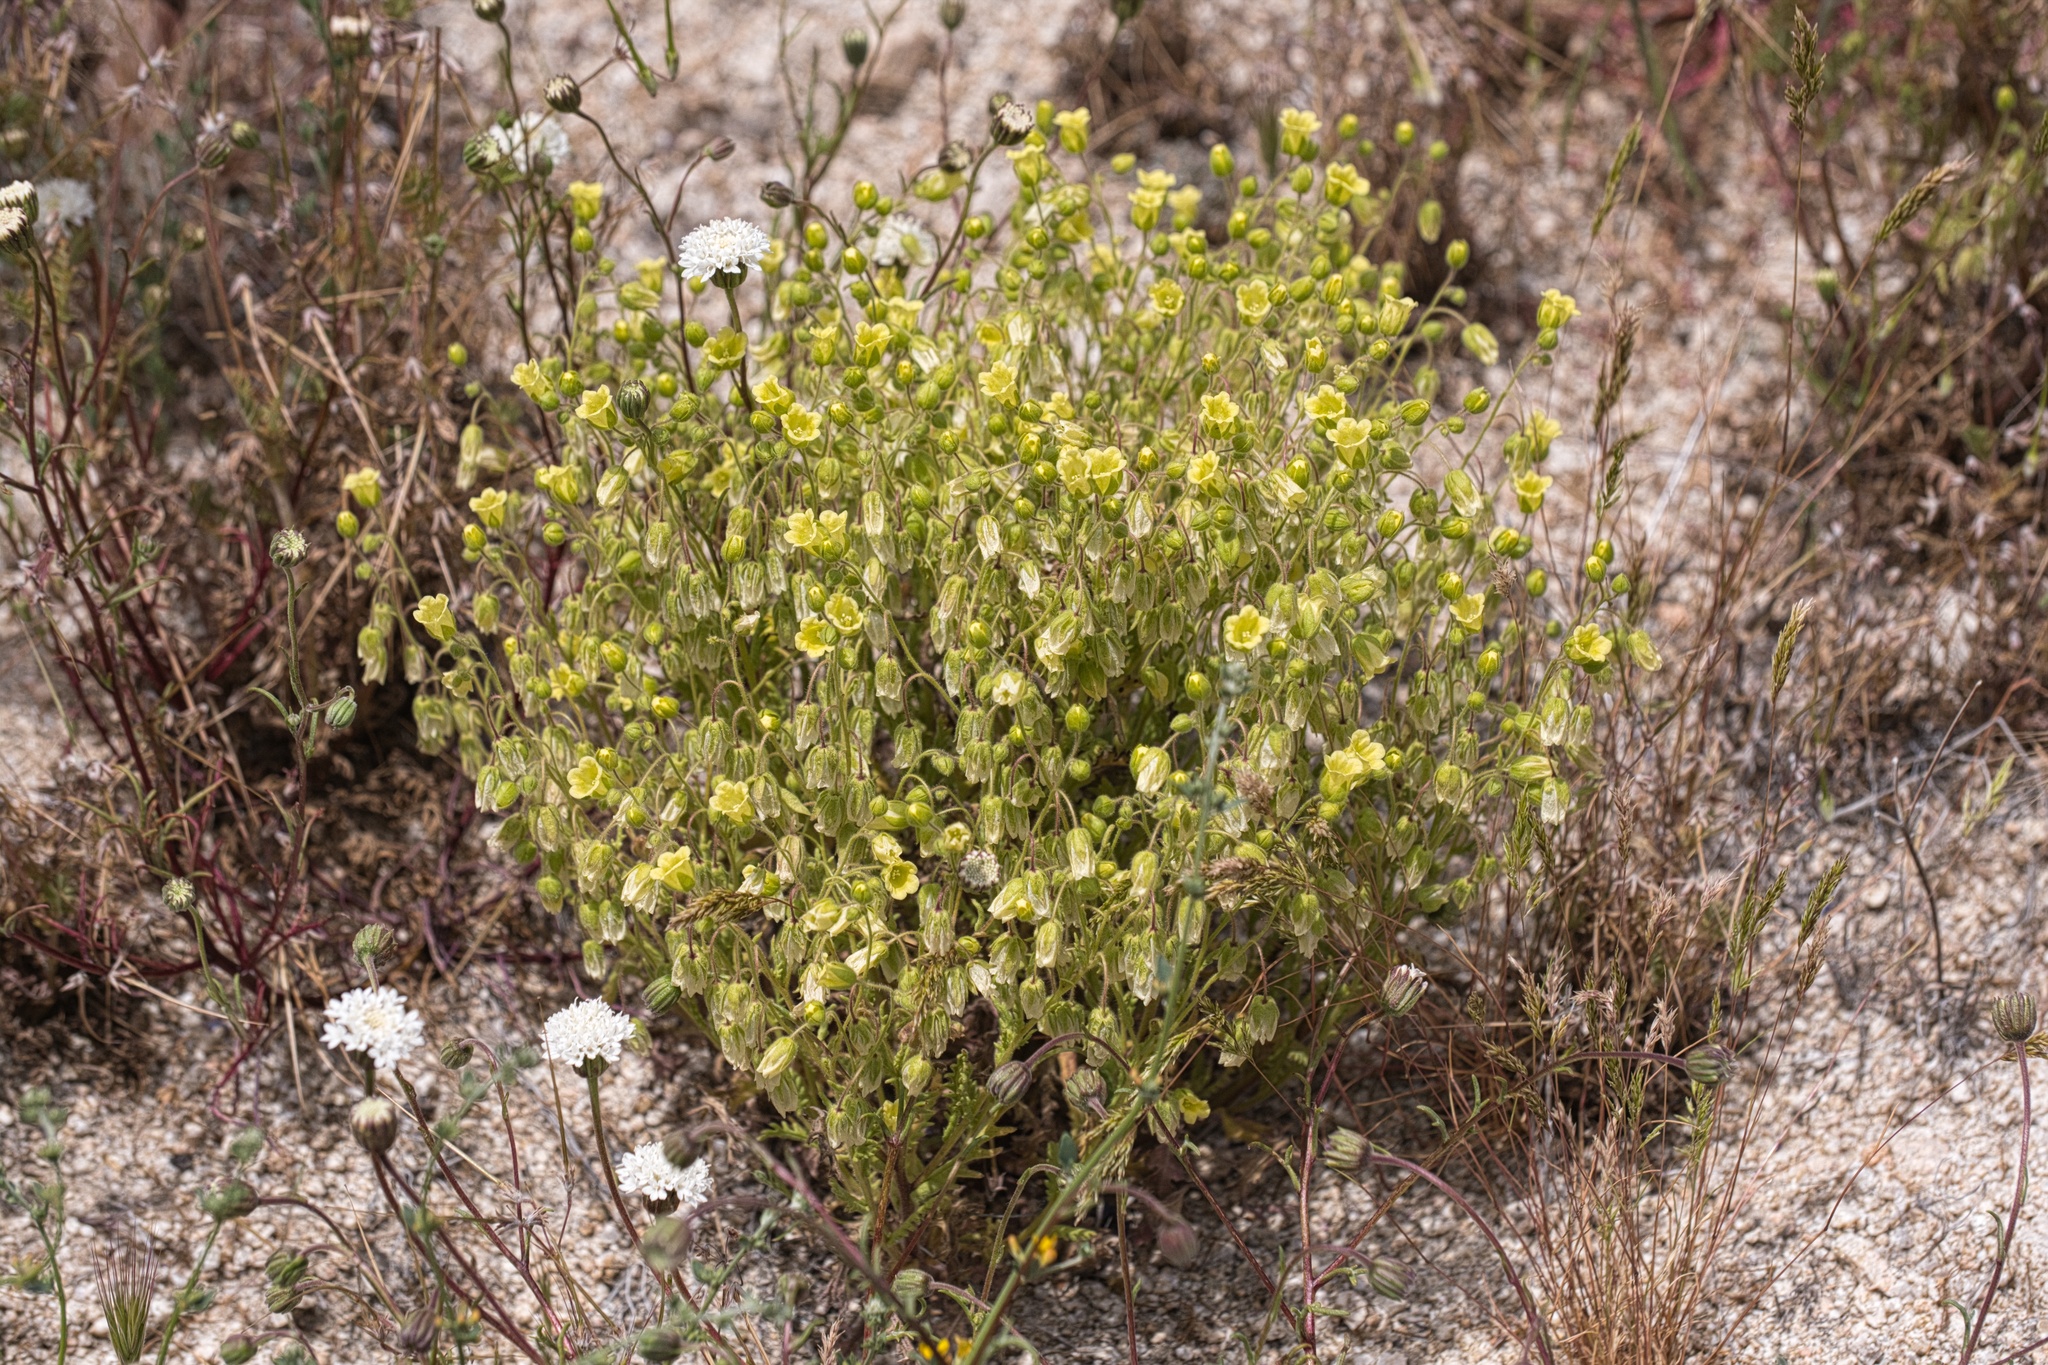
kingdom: Plantae
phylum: Tracheophyta
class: Magnoliopsida
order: Boraginales
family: Hydrophyllaceae
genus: Emmenanthe
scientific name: Emmenanthe penduliflora
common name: Whispering-bells
